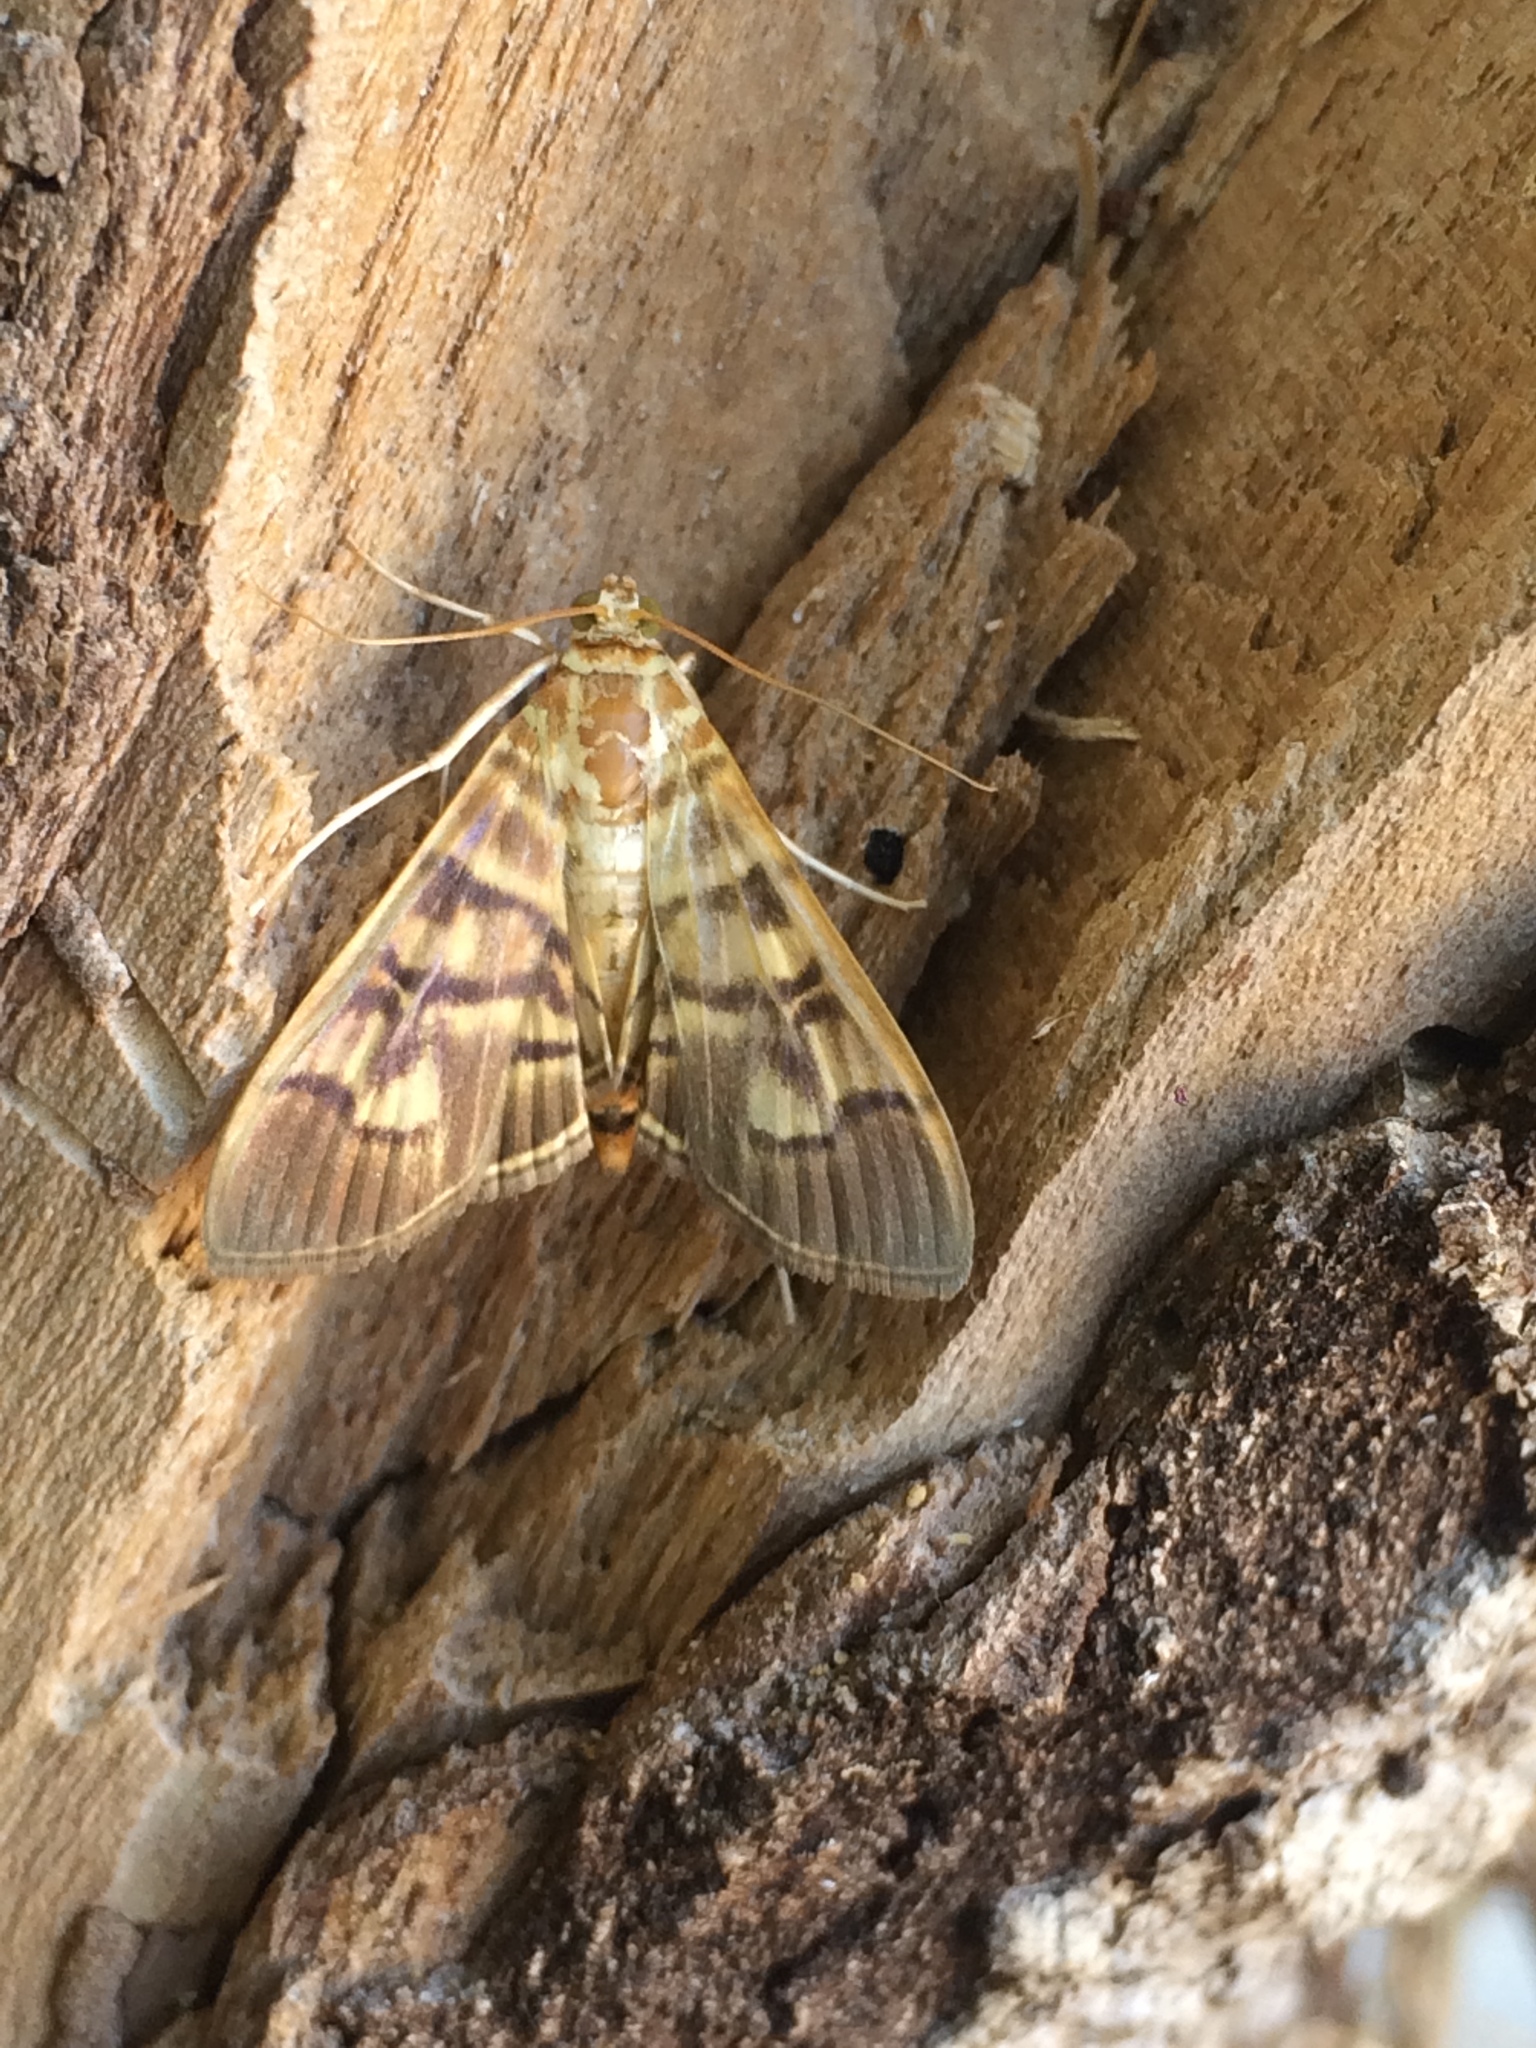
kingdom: Animalia
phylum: Arthropoda
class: Insecta
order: Lepidoptera
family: Crambidae
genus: Pilocrocis
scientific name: Pilocrocis lauralis
